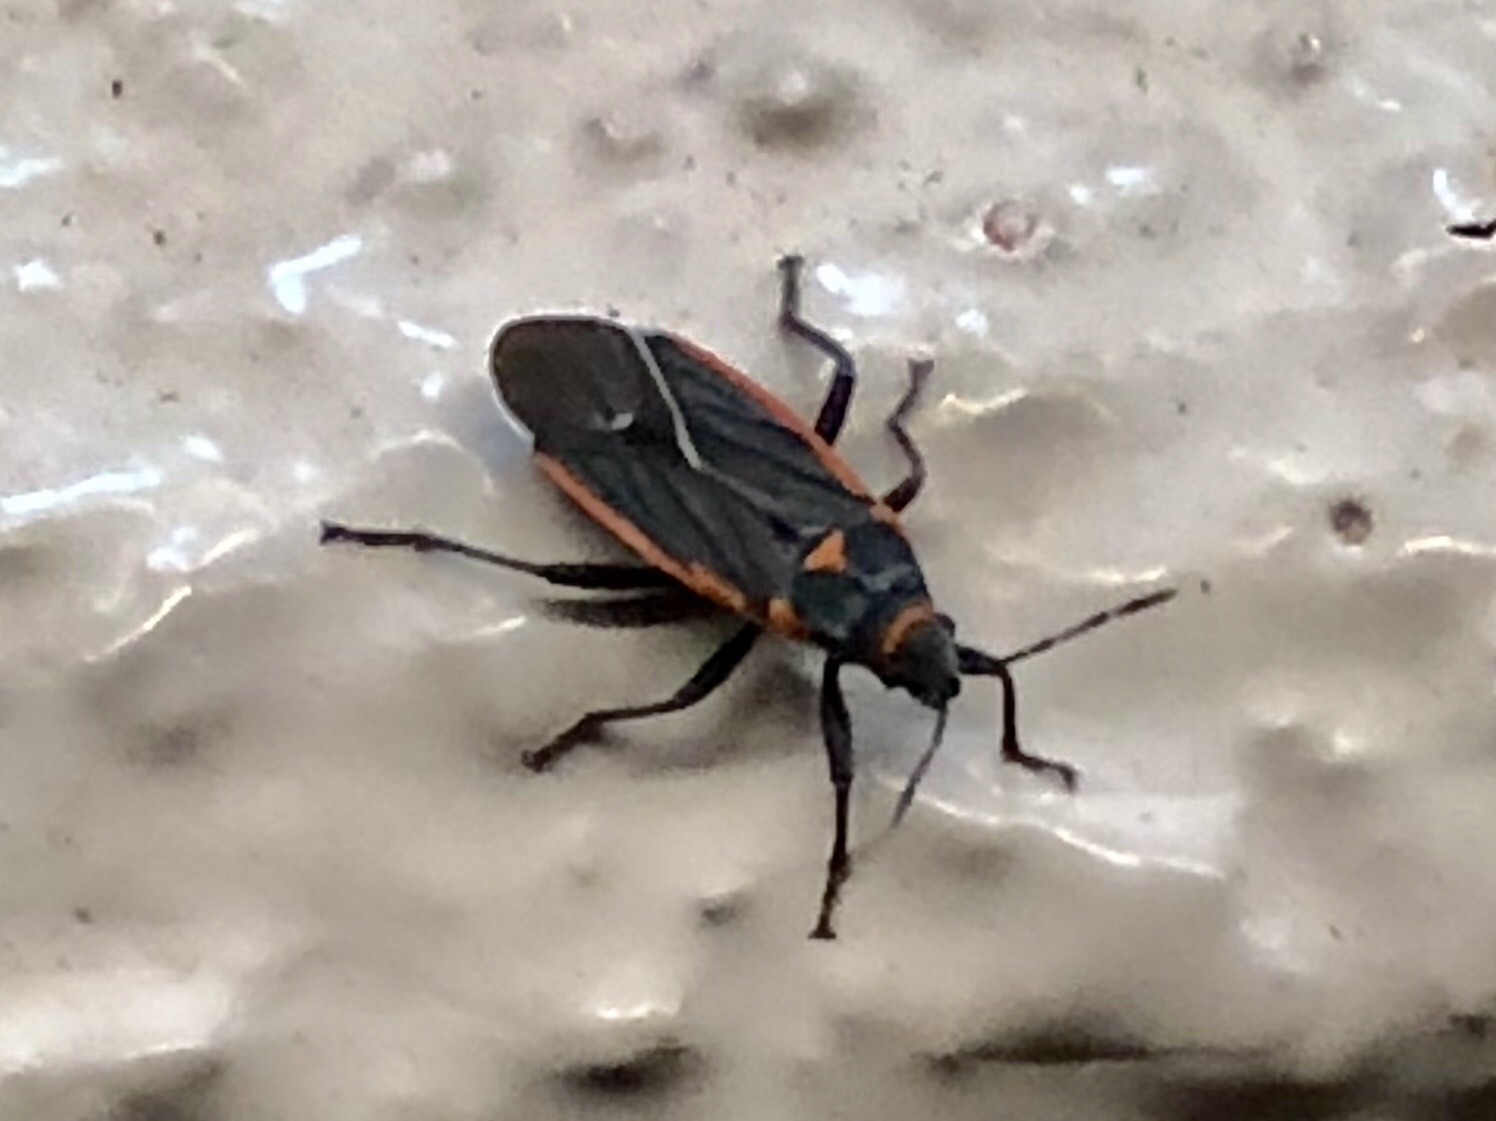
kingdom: Animalia
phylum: Arthropoda
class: Insecta
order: Hemiptera
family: Lygaeidae
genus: Melacoryphus
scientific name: Melacoryphus lateralis
